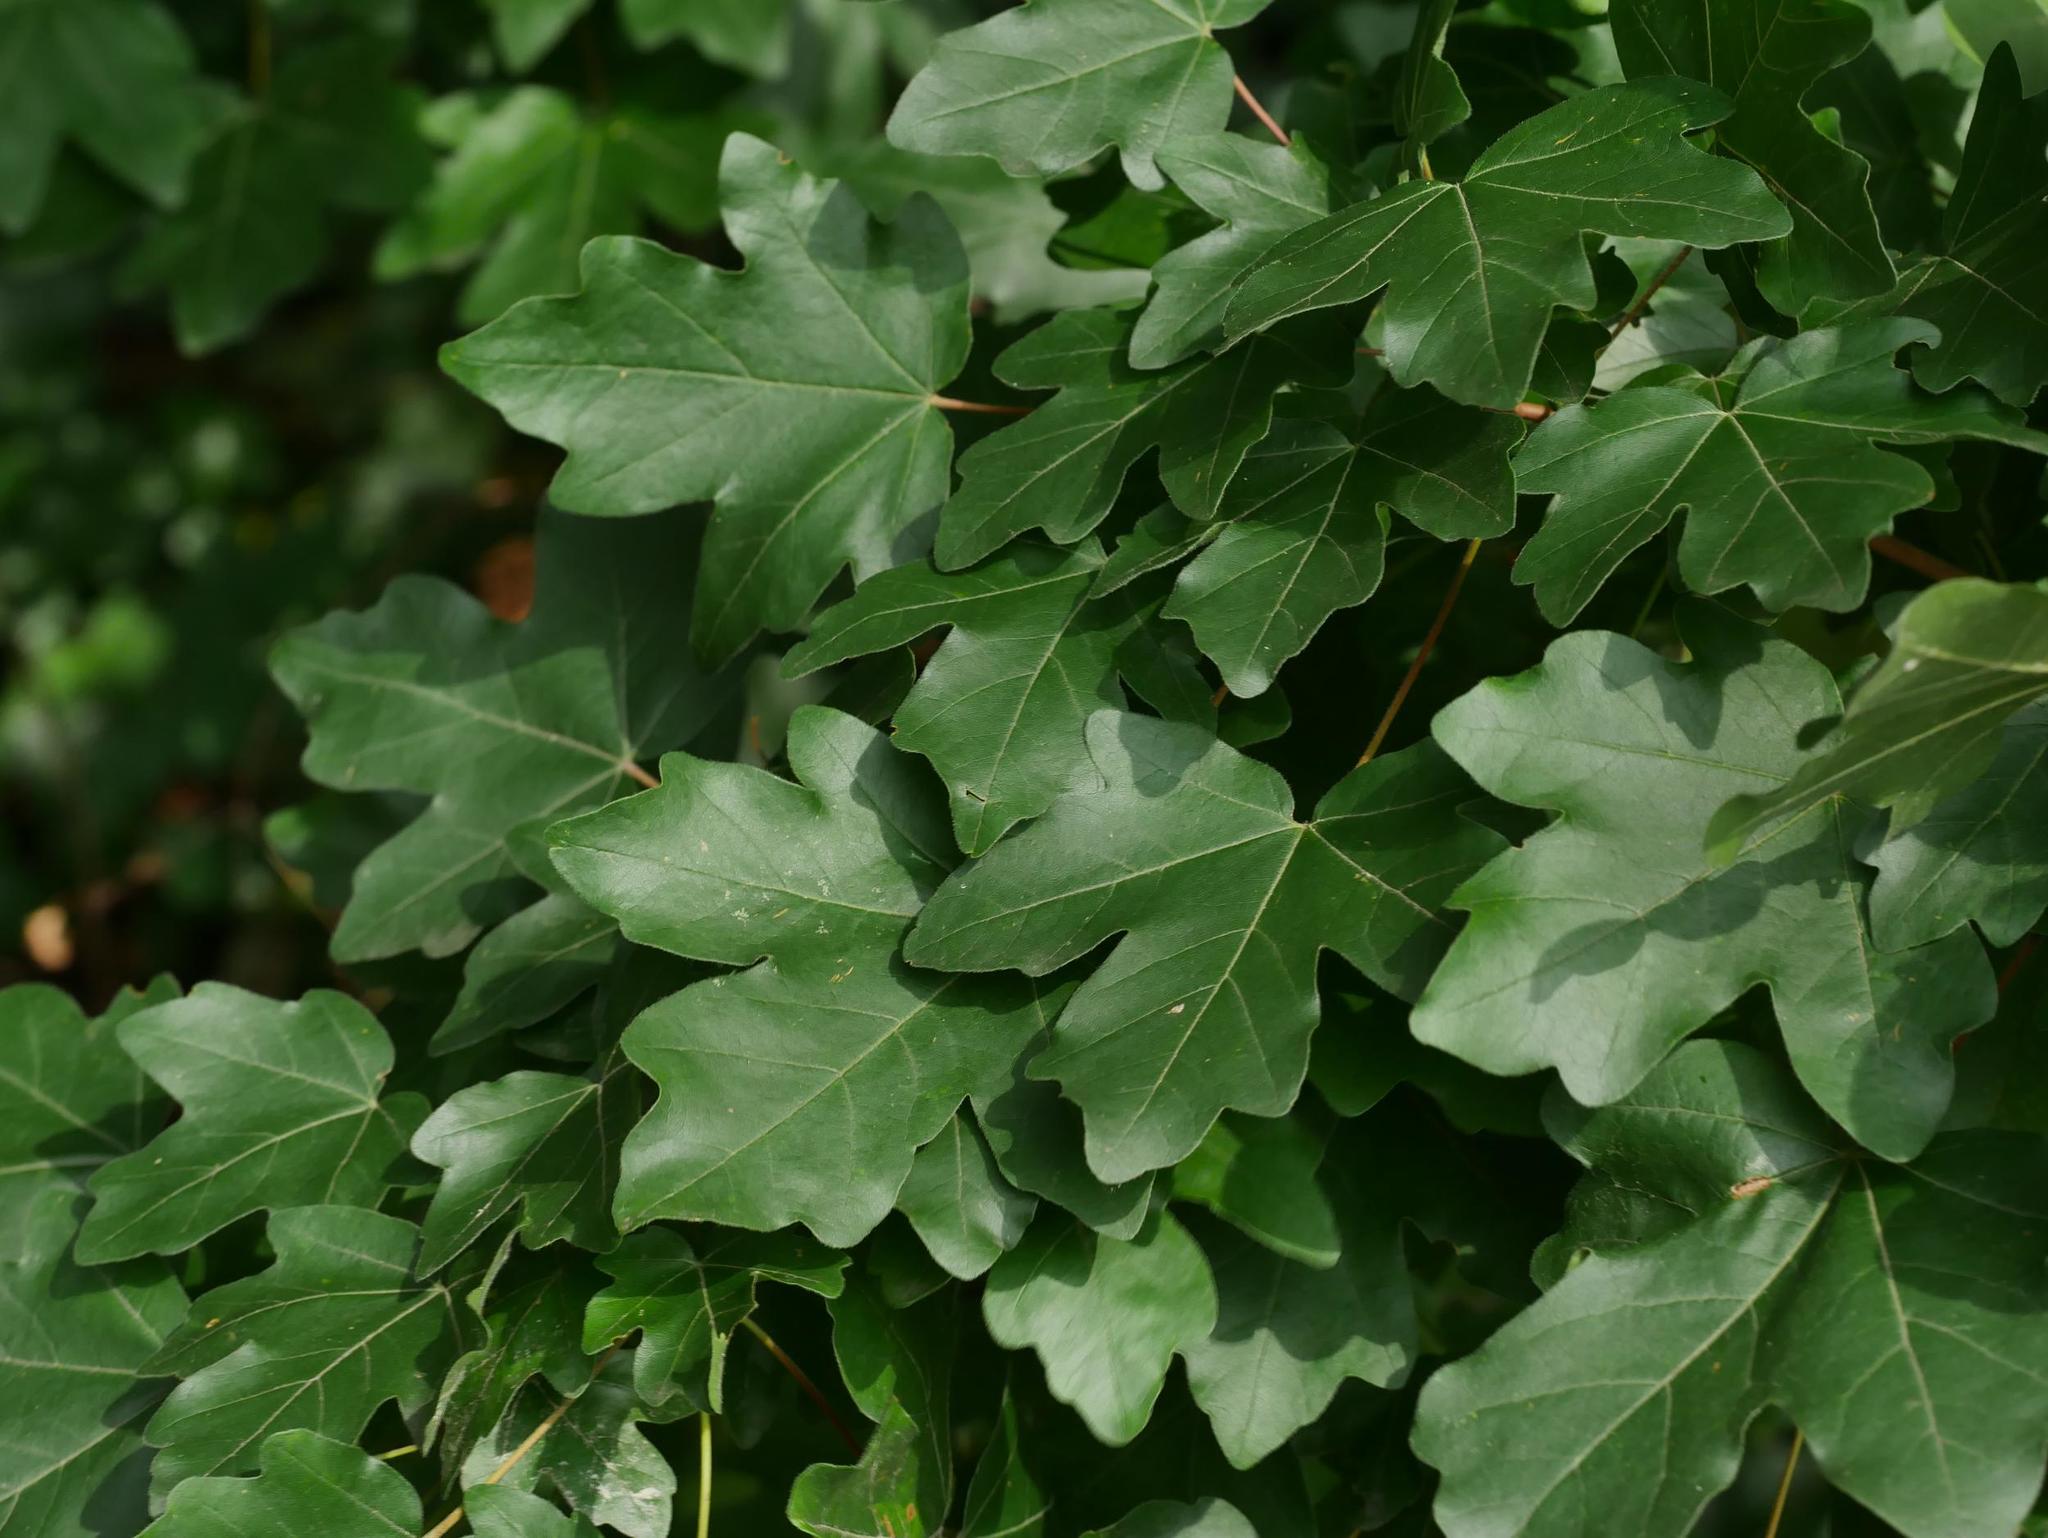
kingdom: Plantae
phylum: Tracheophyta
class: Magnoliopsida
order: Sapindales
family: Sapindaceae
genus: Acer
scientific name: Acer campestre
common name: Field maple
